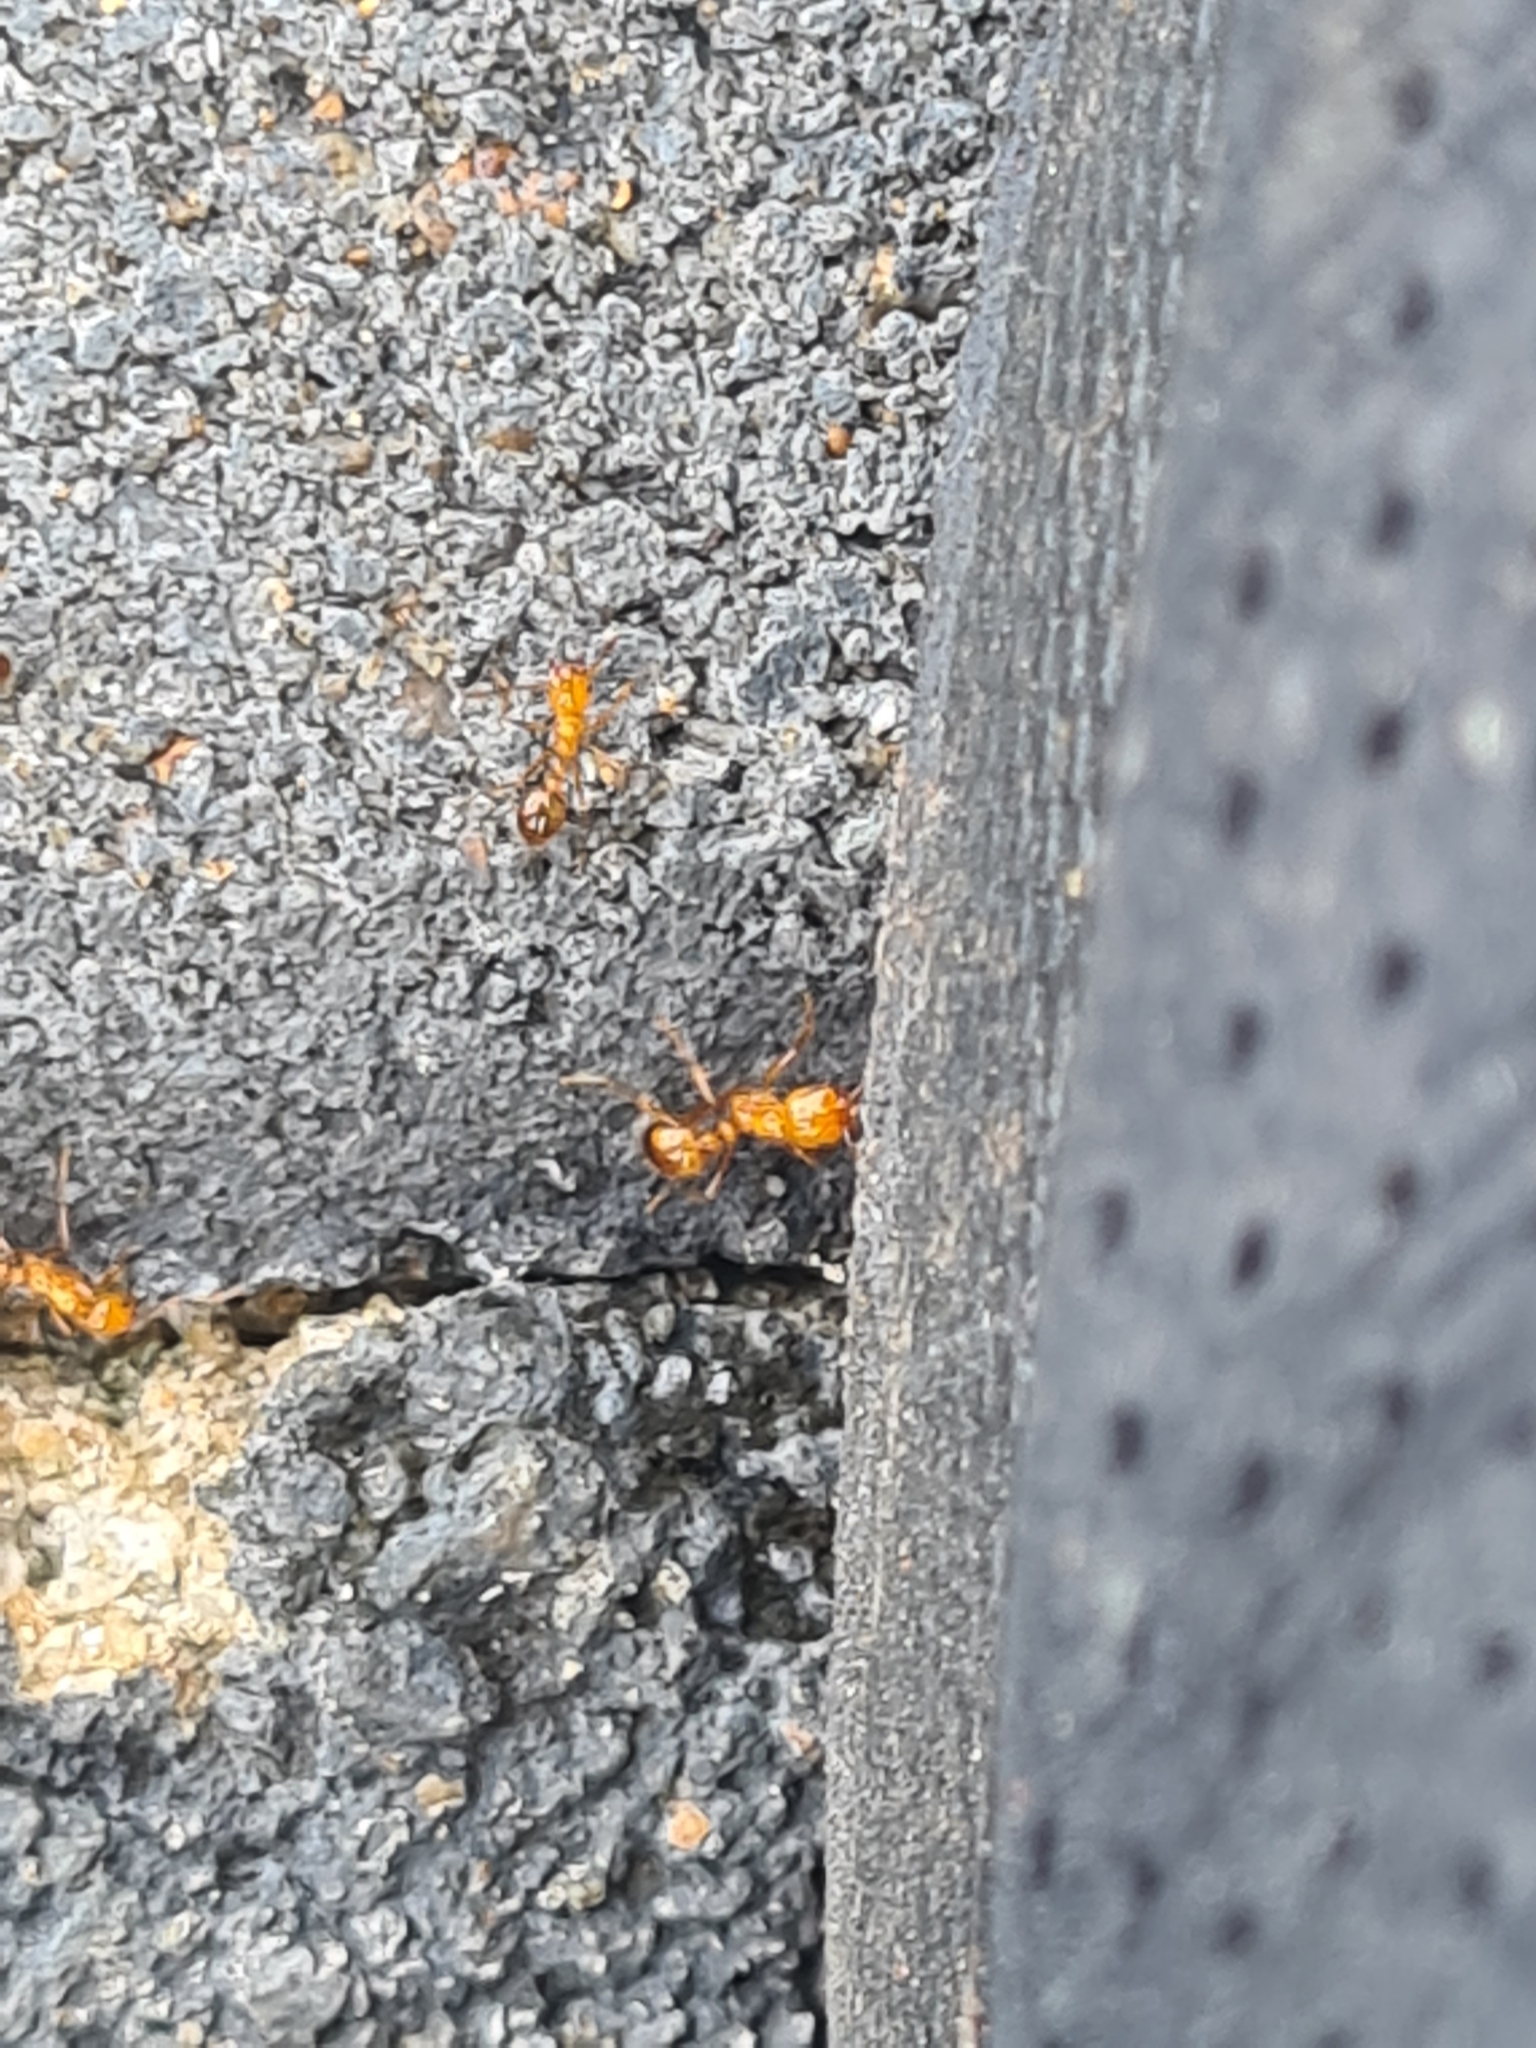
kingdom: Animalia
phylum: Arthropoda
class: Insecta
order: Hymenoptera
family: Formicidae
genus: Solenopsis
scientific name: Solenopsis geminata
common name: Tropical fire ant
